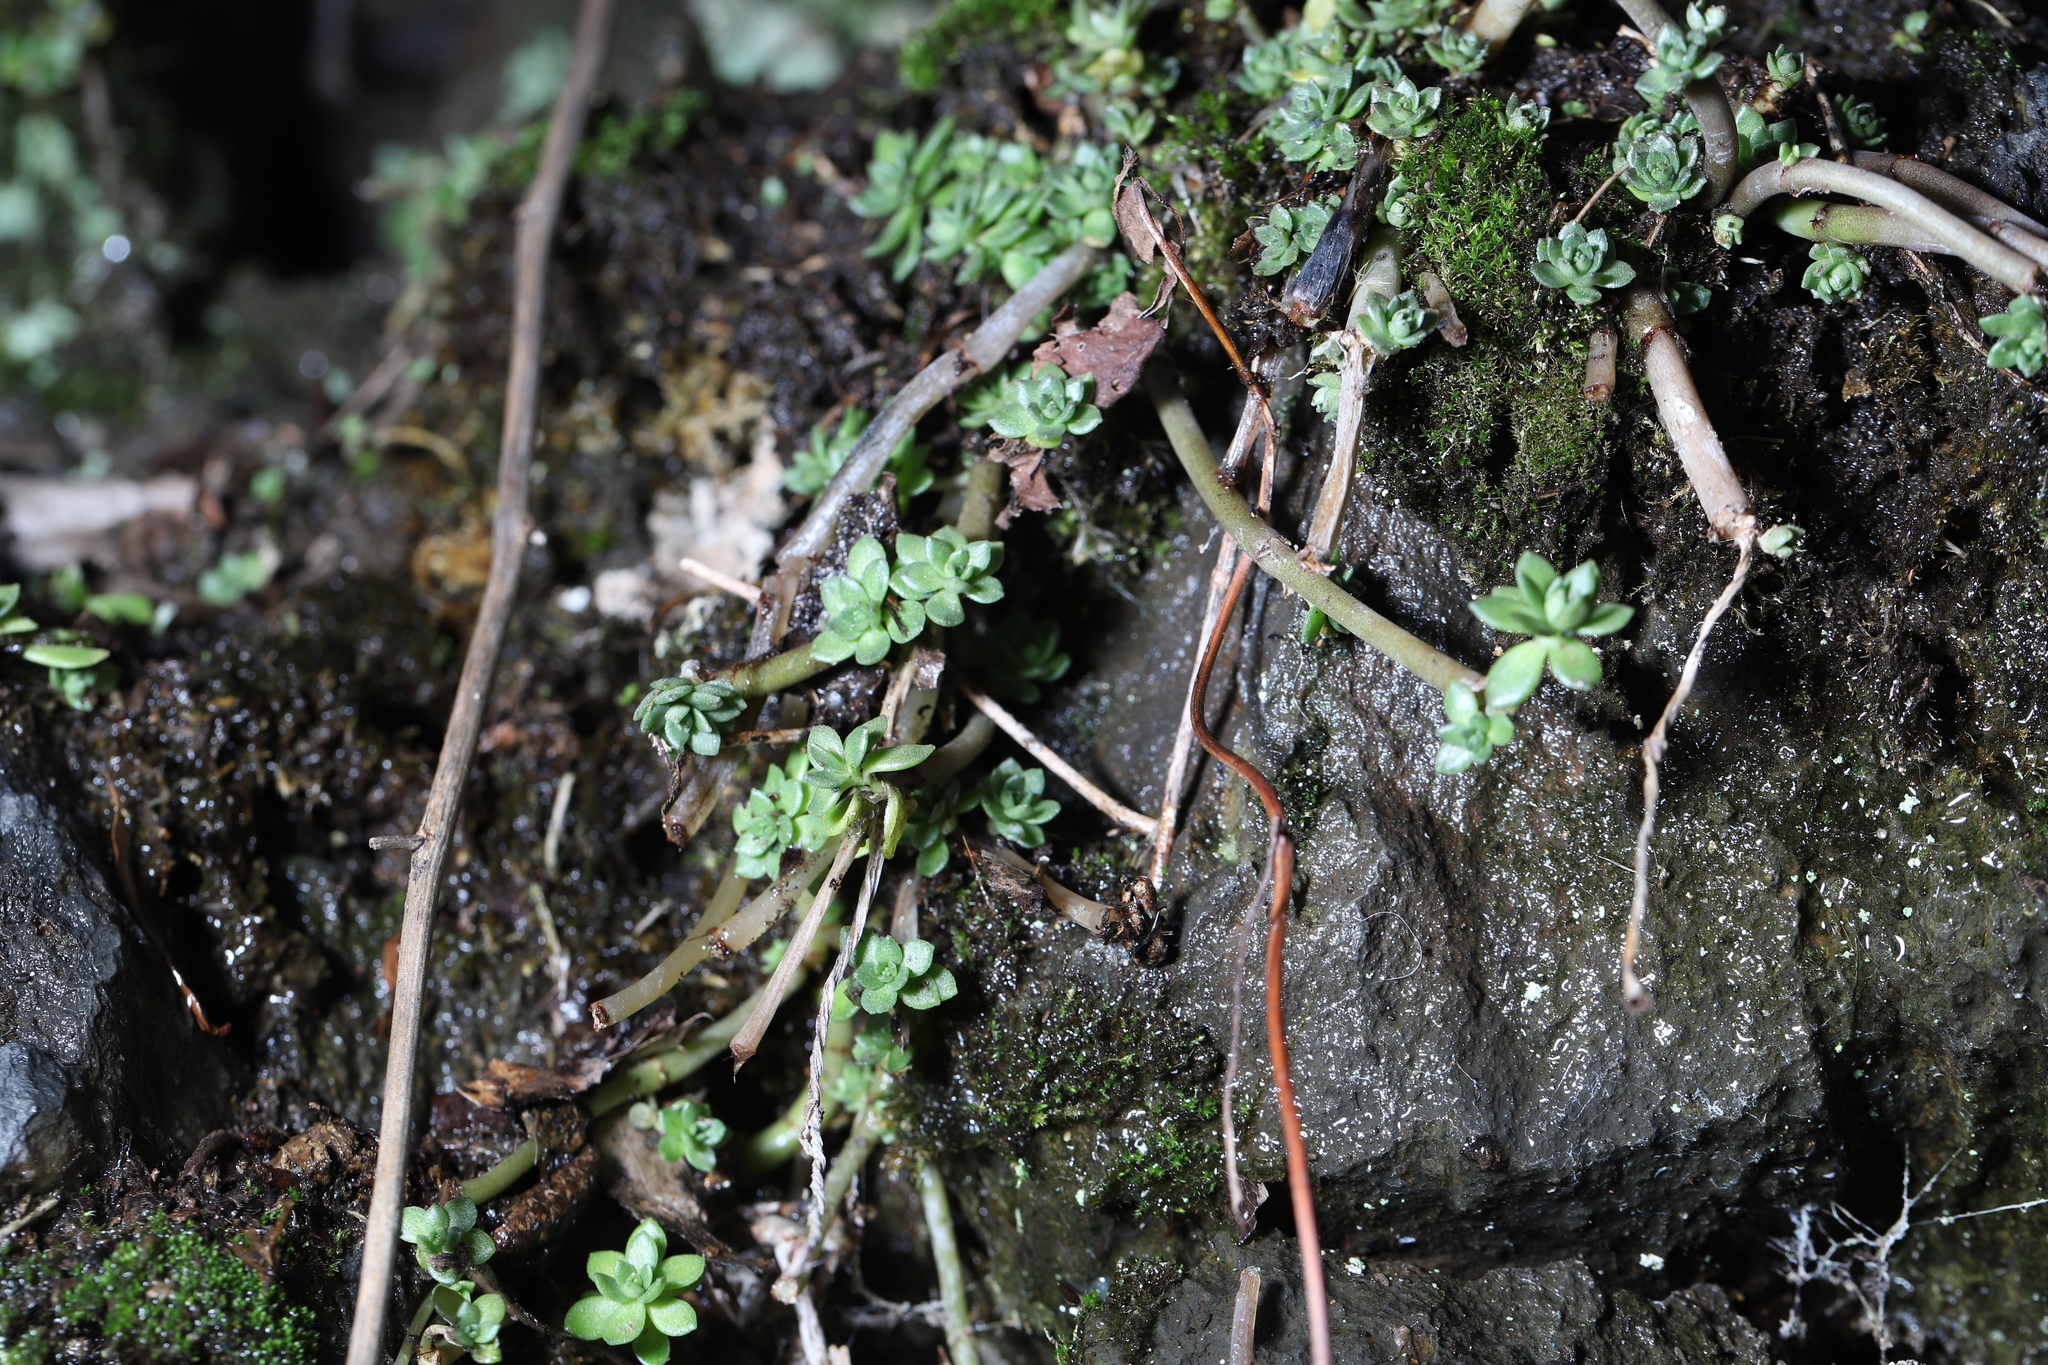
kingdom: Plantae
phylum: Tracheophyta
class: Magnoliopsida
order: Saxifragales
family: Crassulaceae
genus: Sedum
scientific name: Sedum sarmentosum
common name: Stringy stonecrop
